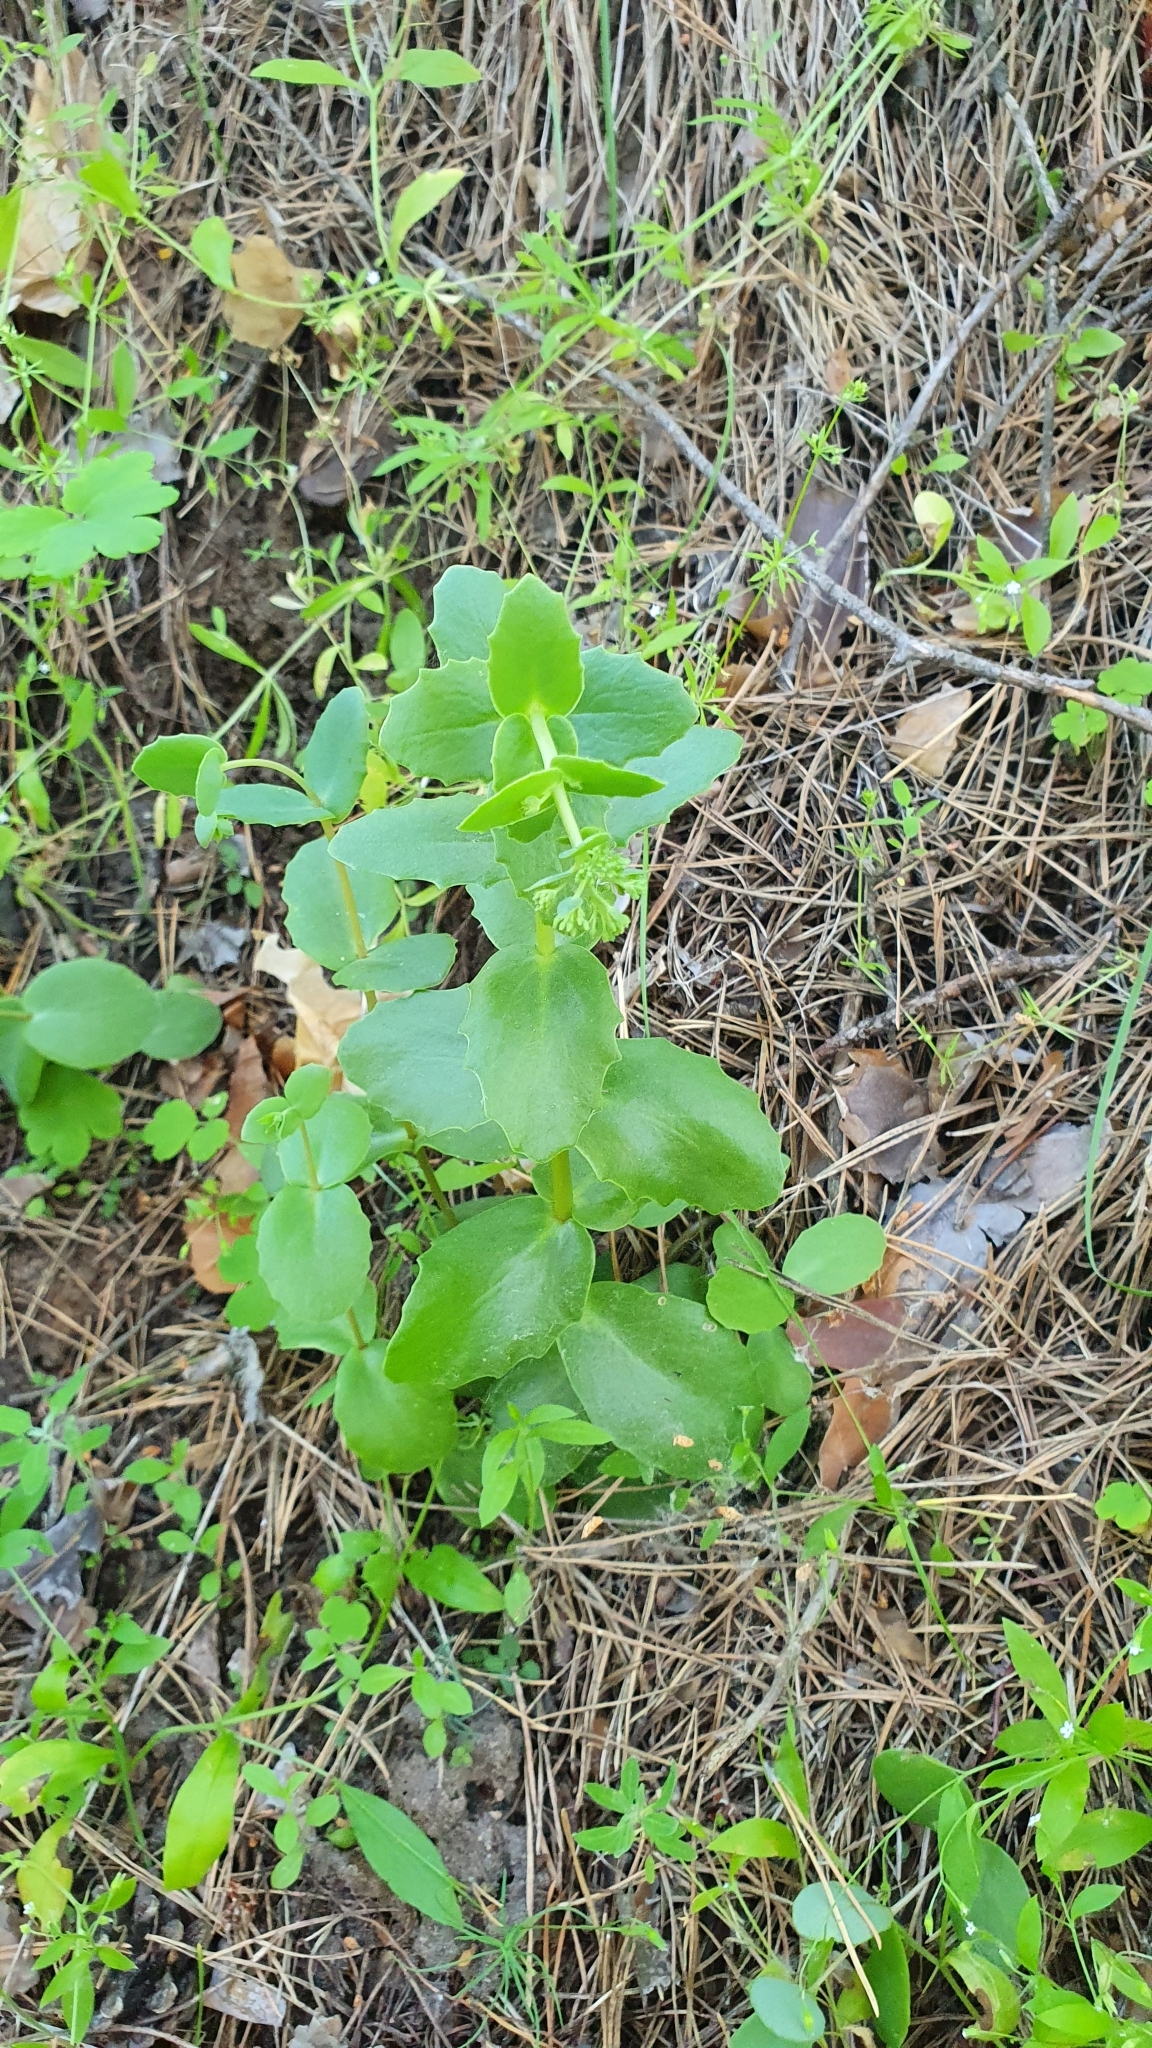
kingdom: Plantae
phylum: Tracheophyta
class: Magnoliopsida
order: Saxifragales
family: Crassulaceae
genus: Hylotelephium
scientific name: Hylotelephium maximum
